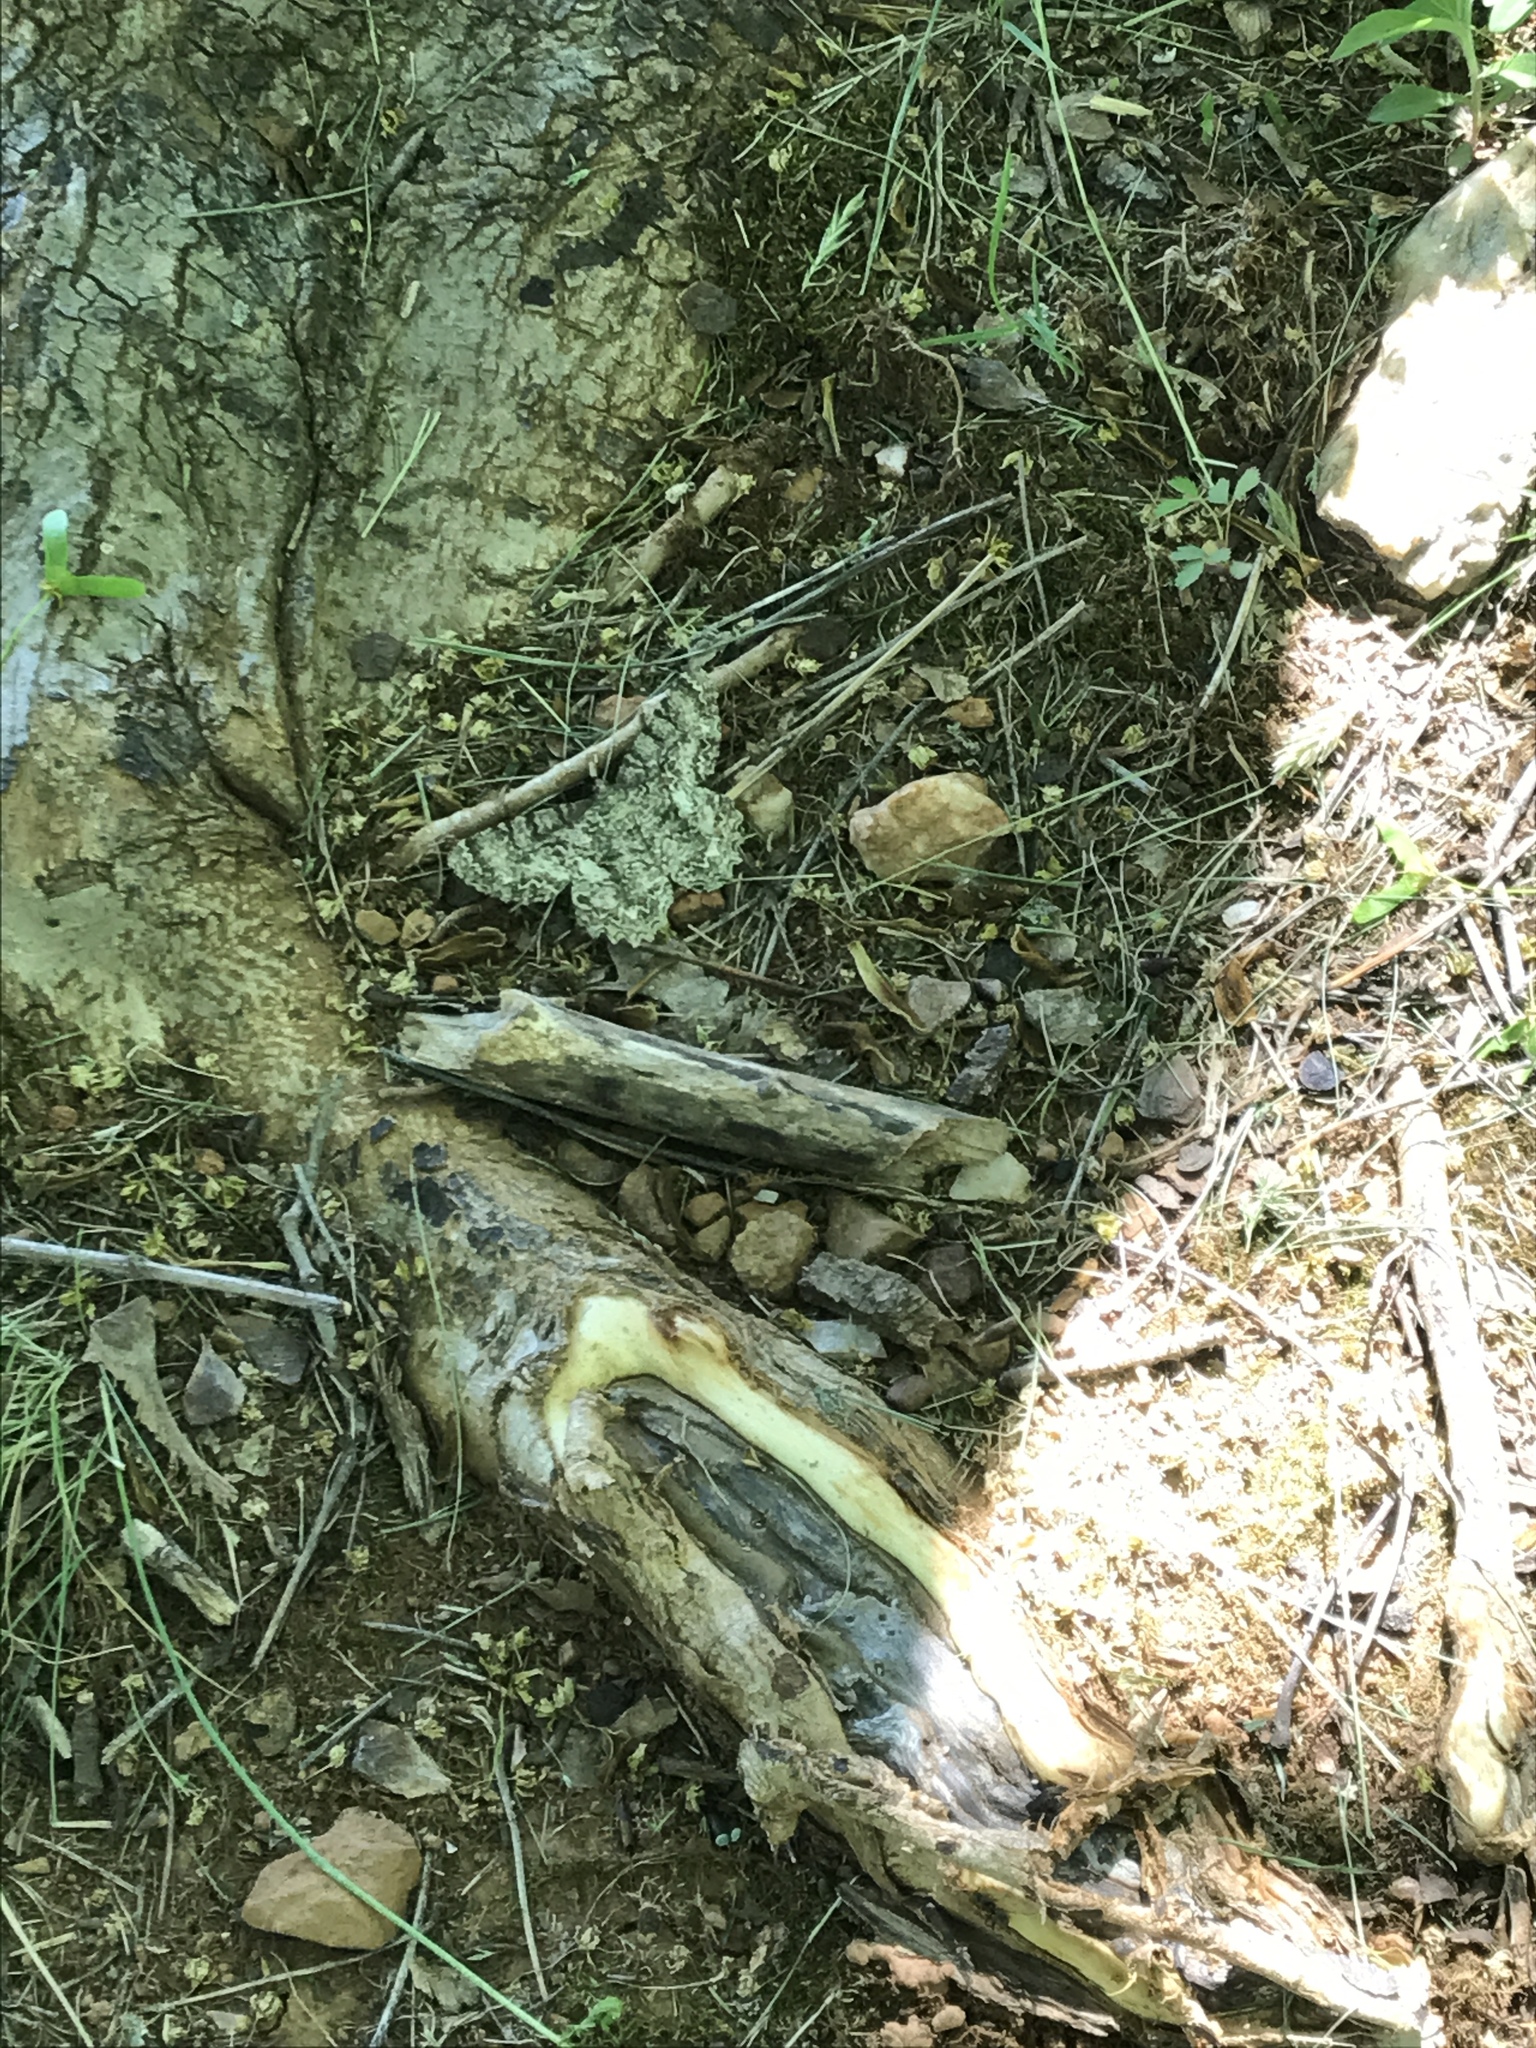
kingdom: Animalia
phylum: Arthropoda
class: Insecta
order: Lepidoptera
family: Geometridae
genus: Epimecis
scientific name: Epimecis hortaria
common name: Tulip-tree beauty
